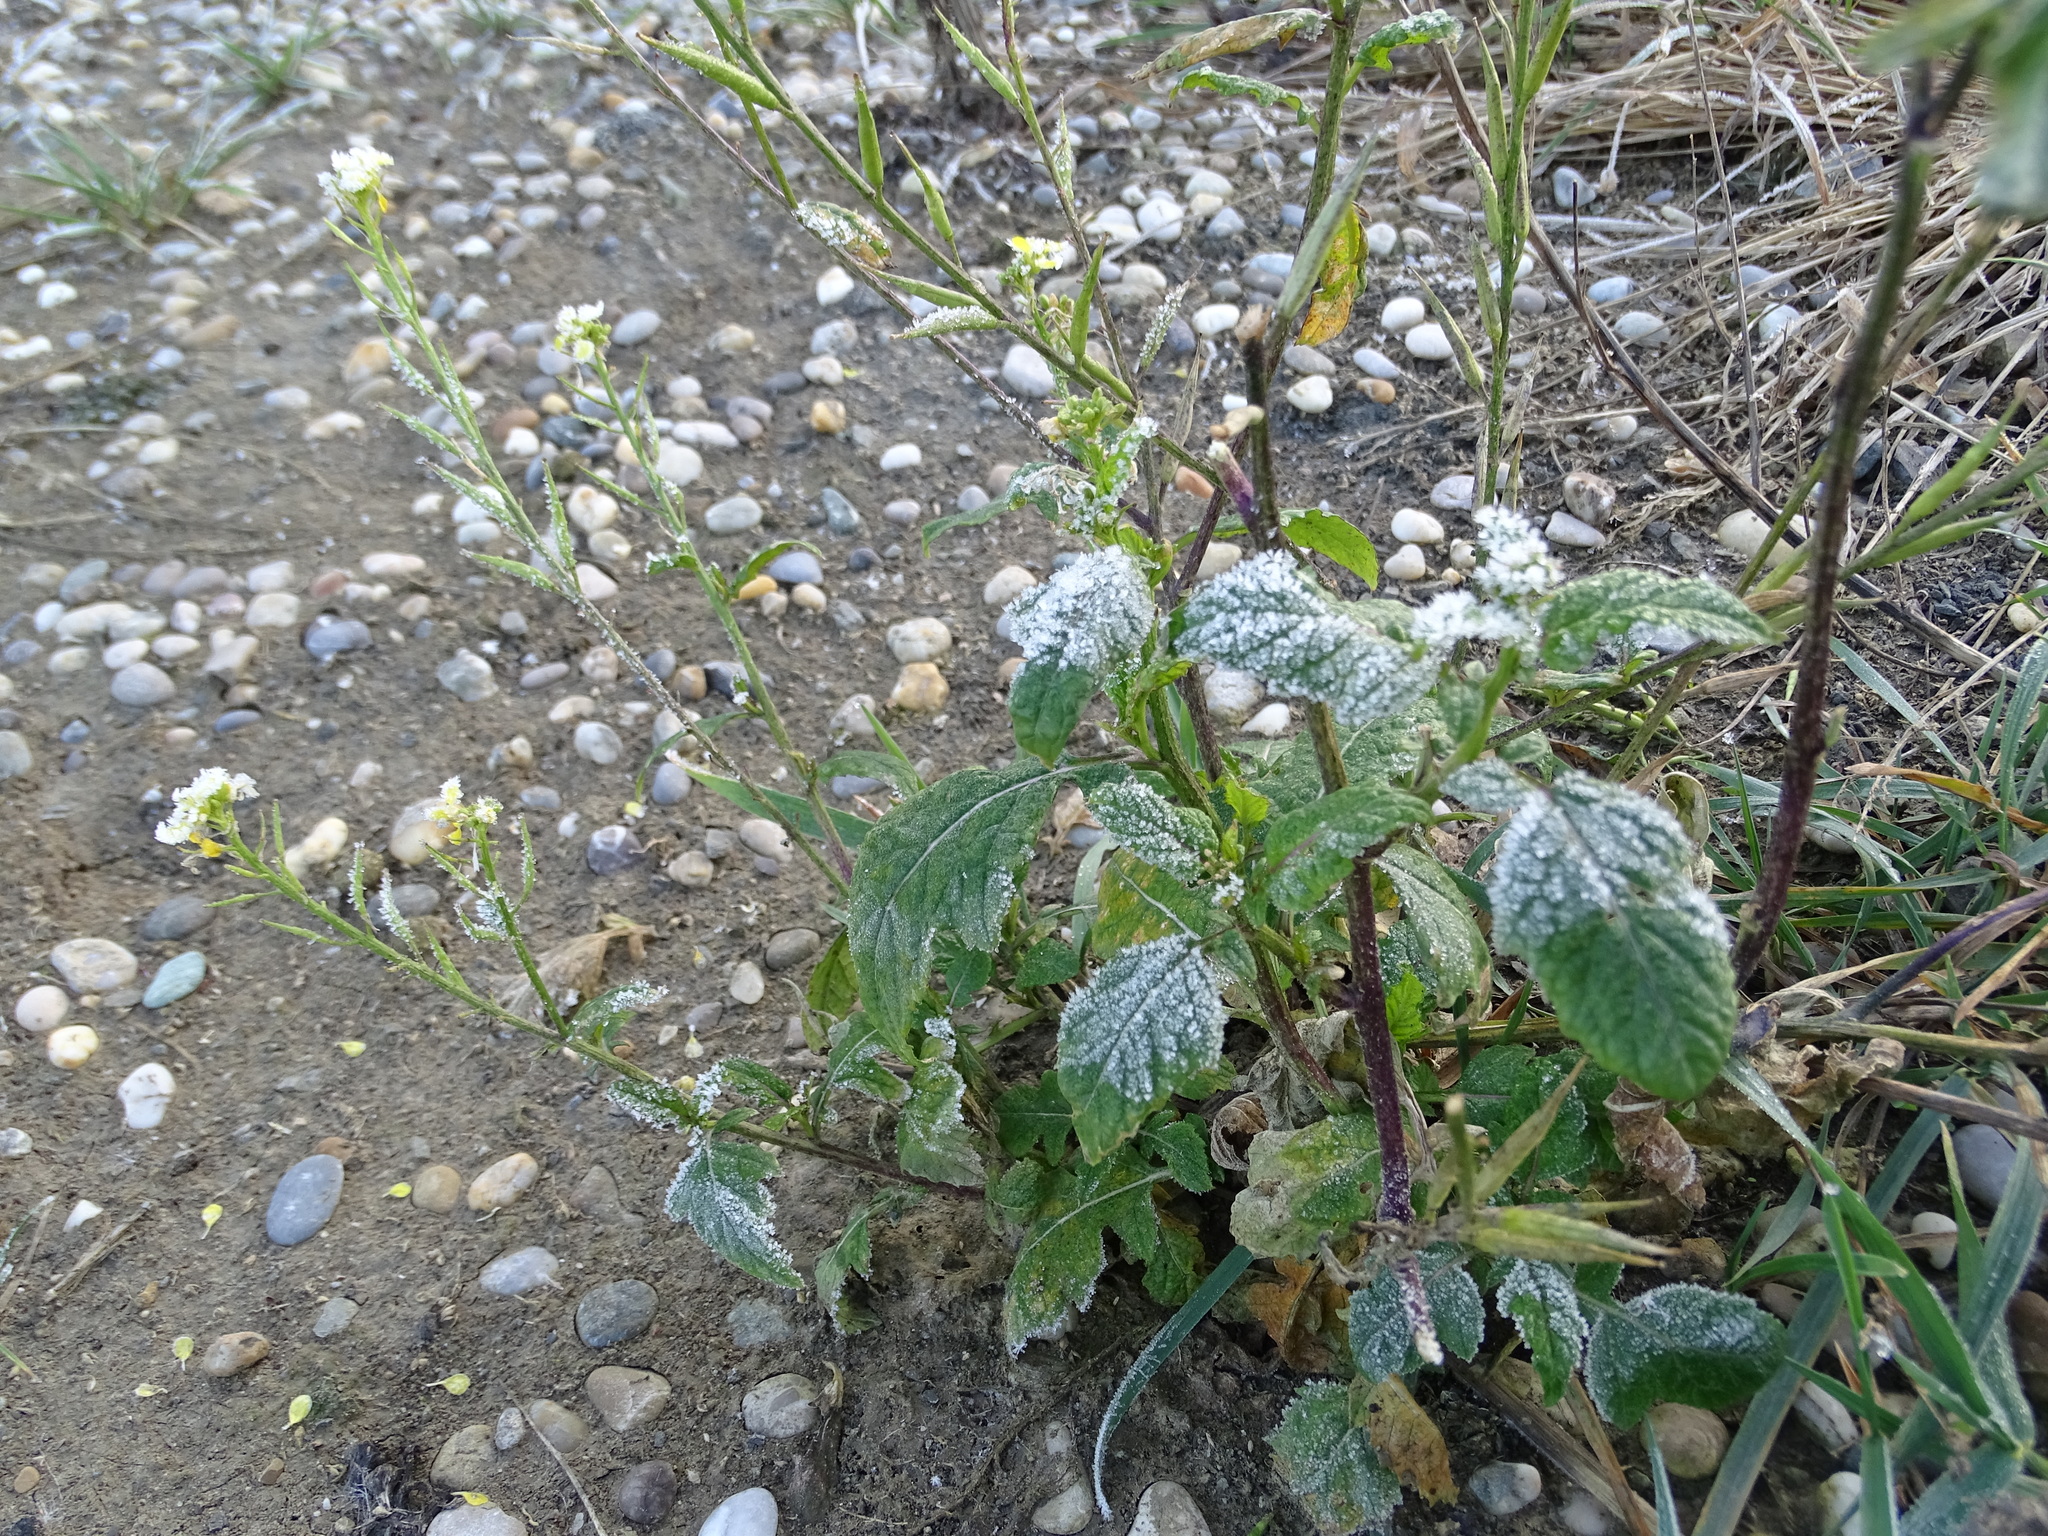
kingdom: Plantae
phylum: Tracheophyta
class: Magnoliopsida
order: Brassicales
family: Brassicaceae
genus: Sinapis
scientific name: Sinapis arvensis
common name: Charlock
